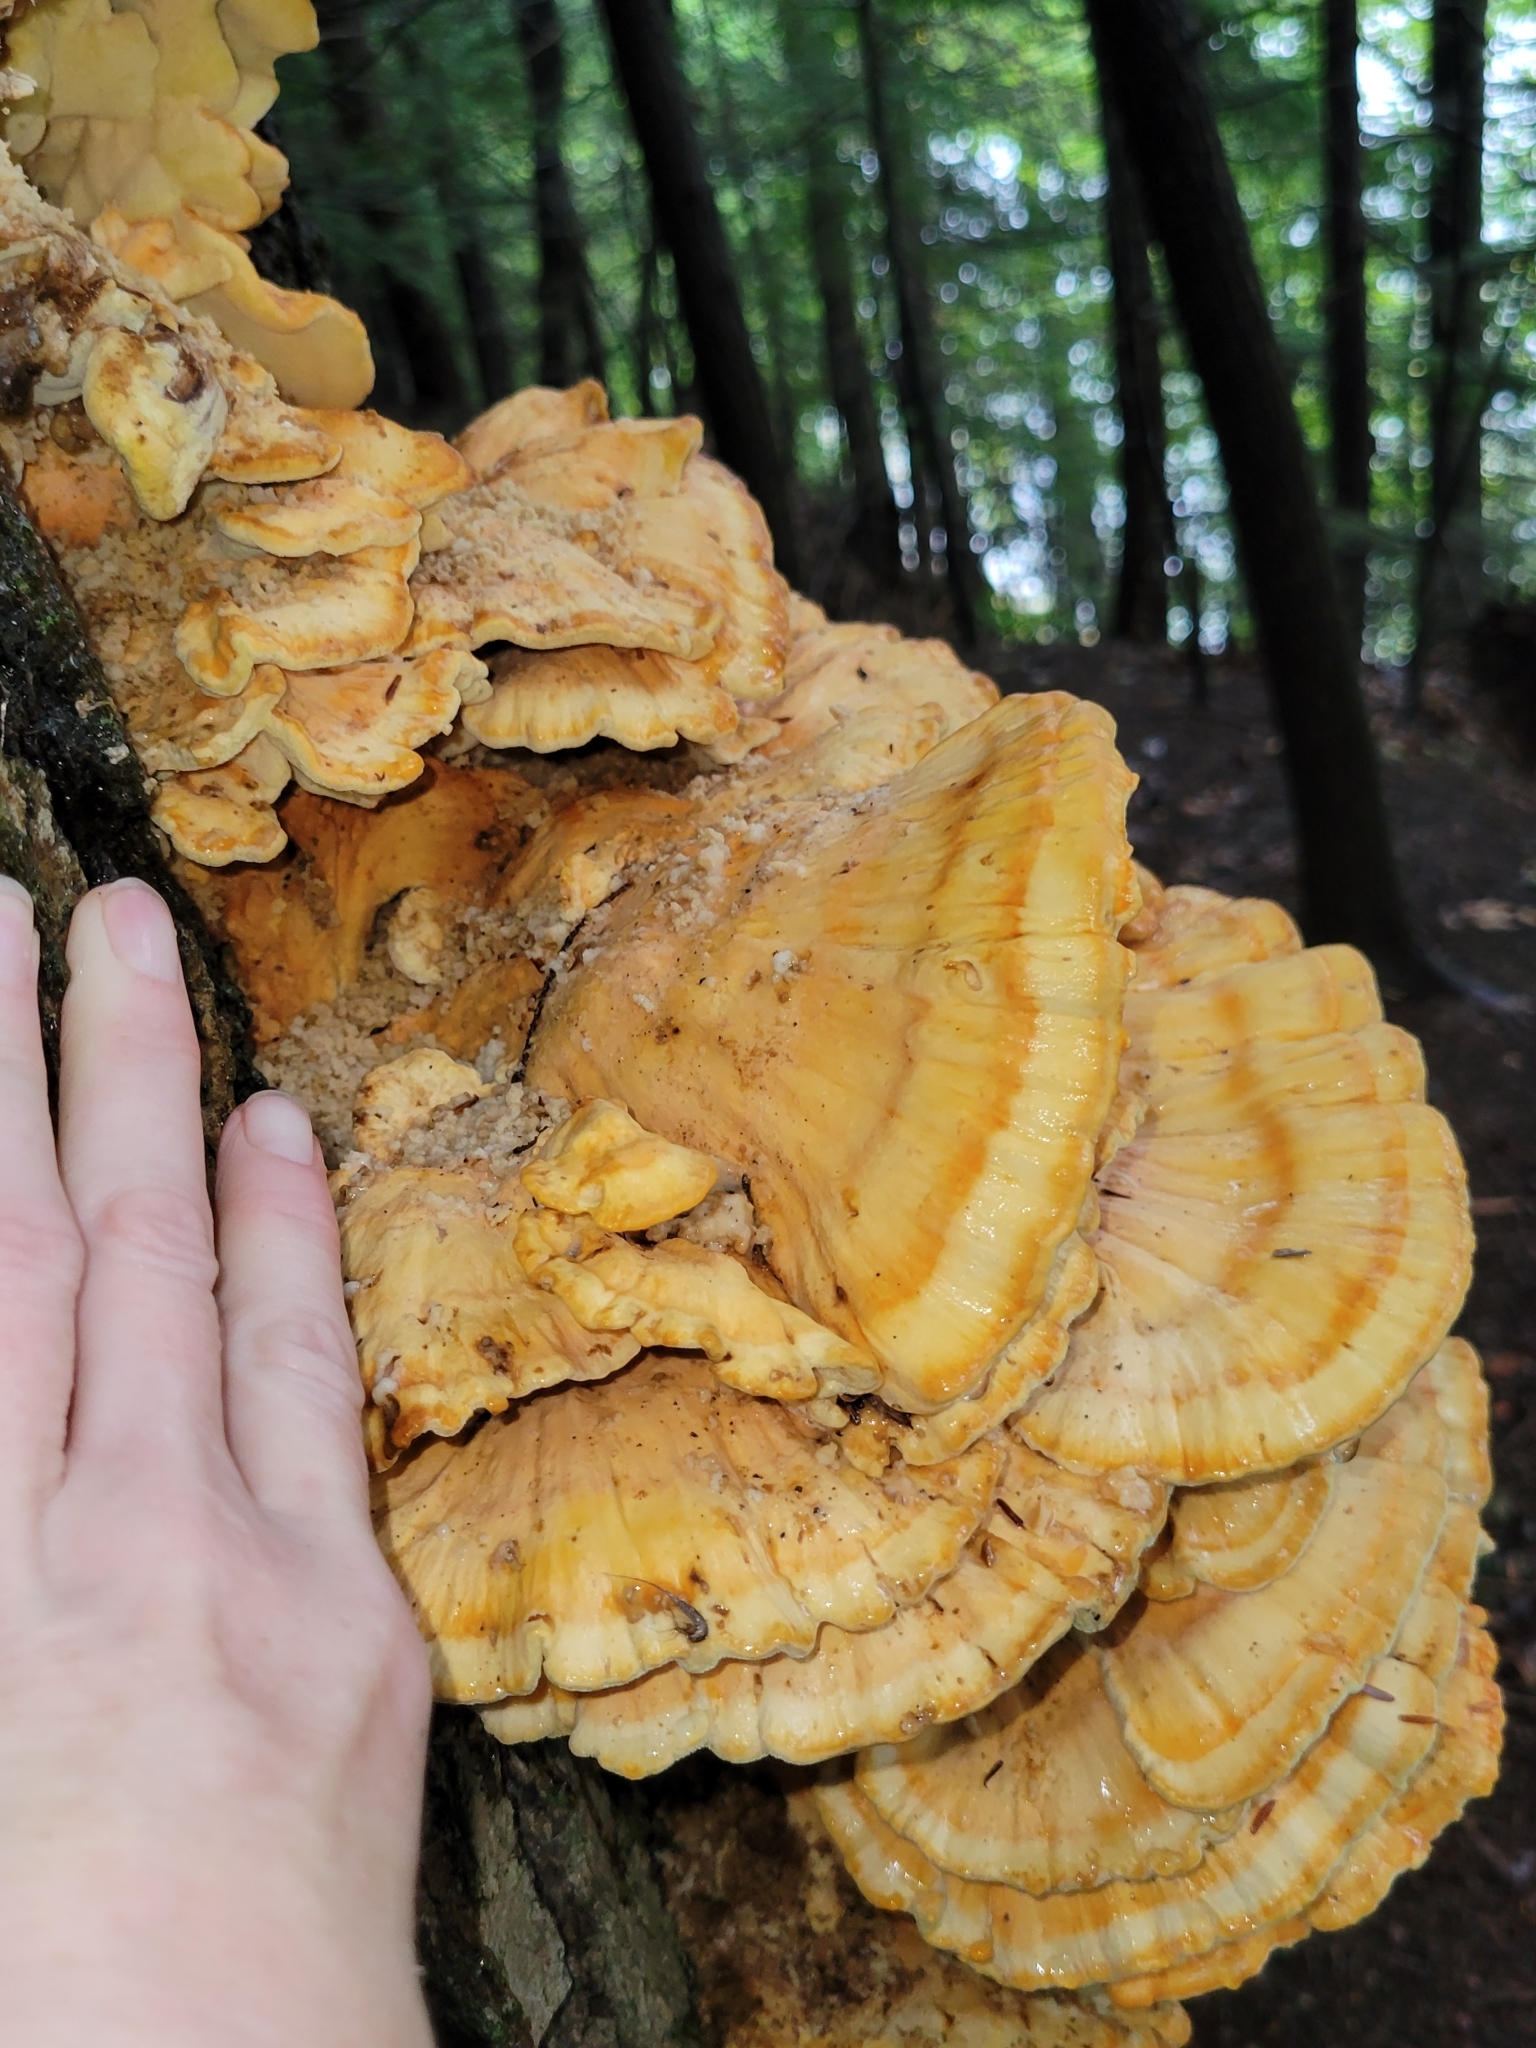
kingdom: Fungi
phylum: Basidiomycota
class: Agaricomycetes
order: Polyporales
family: Laetiporaceae
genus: Laetiporus
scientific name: Laetiporus sulphureus
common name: Chicken of the woods
